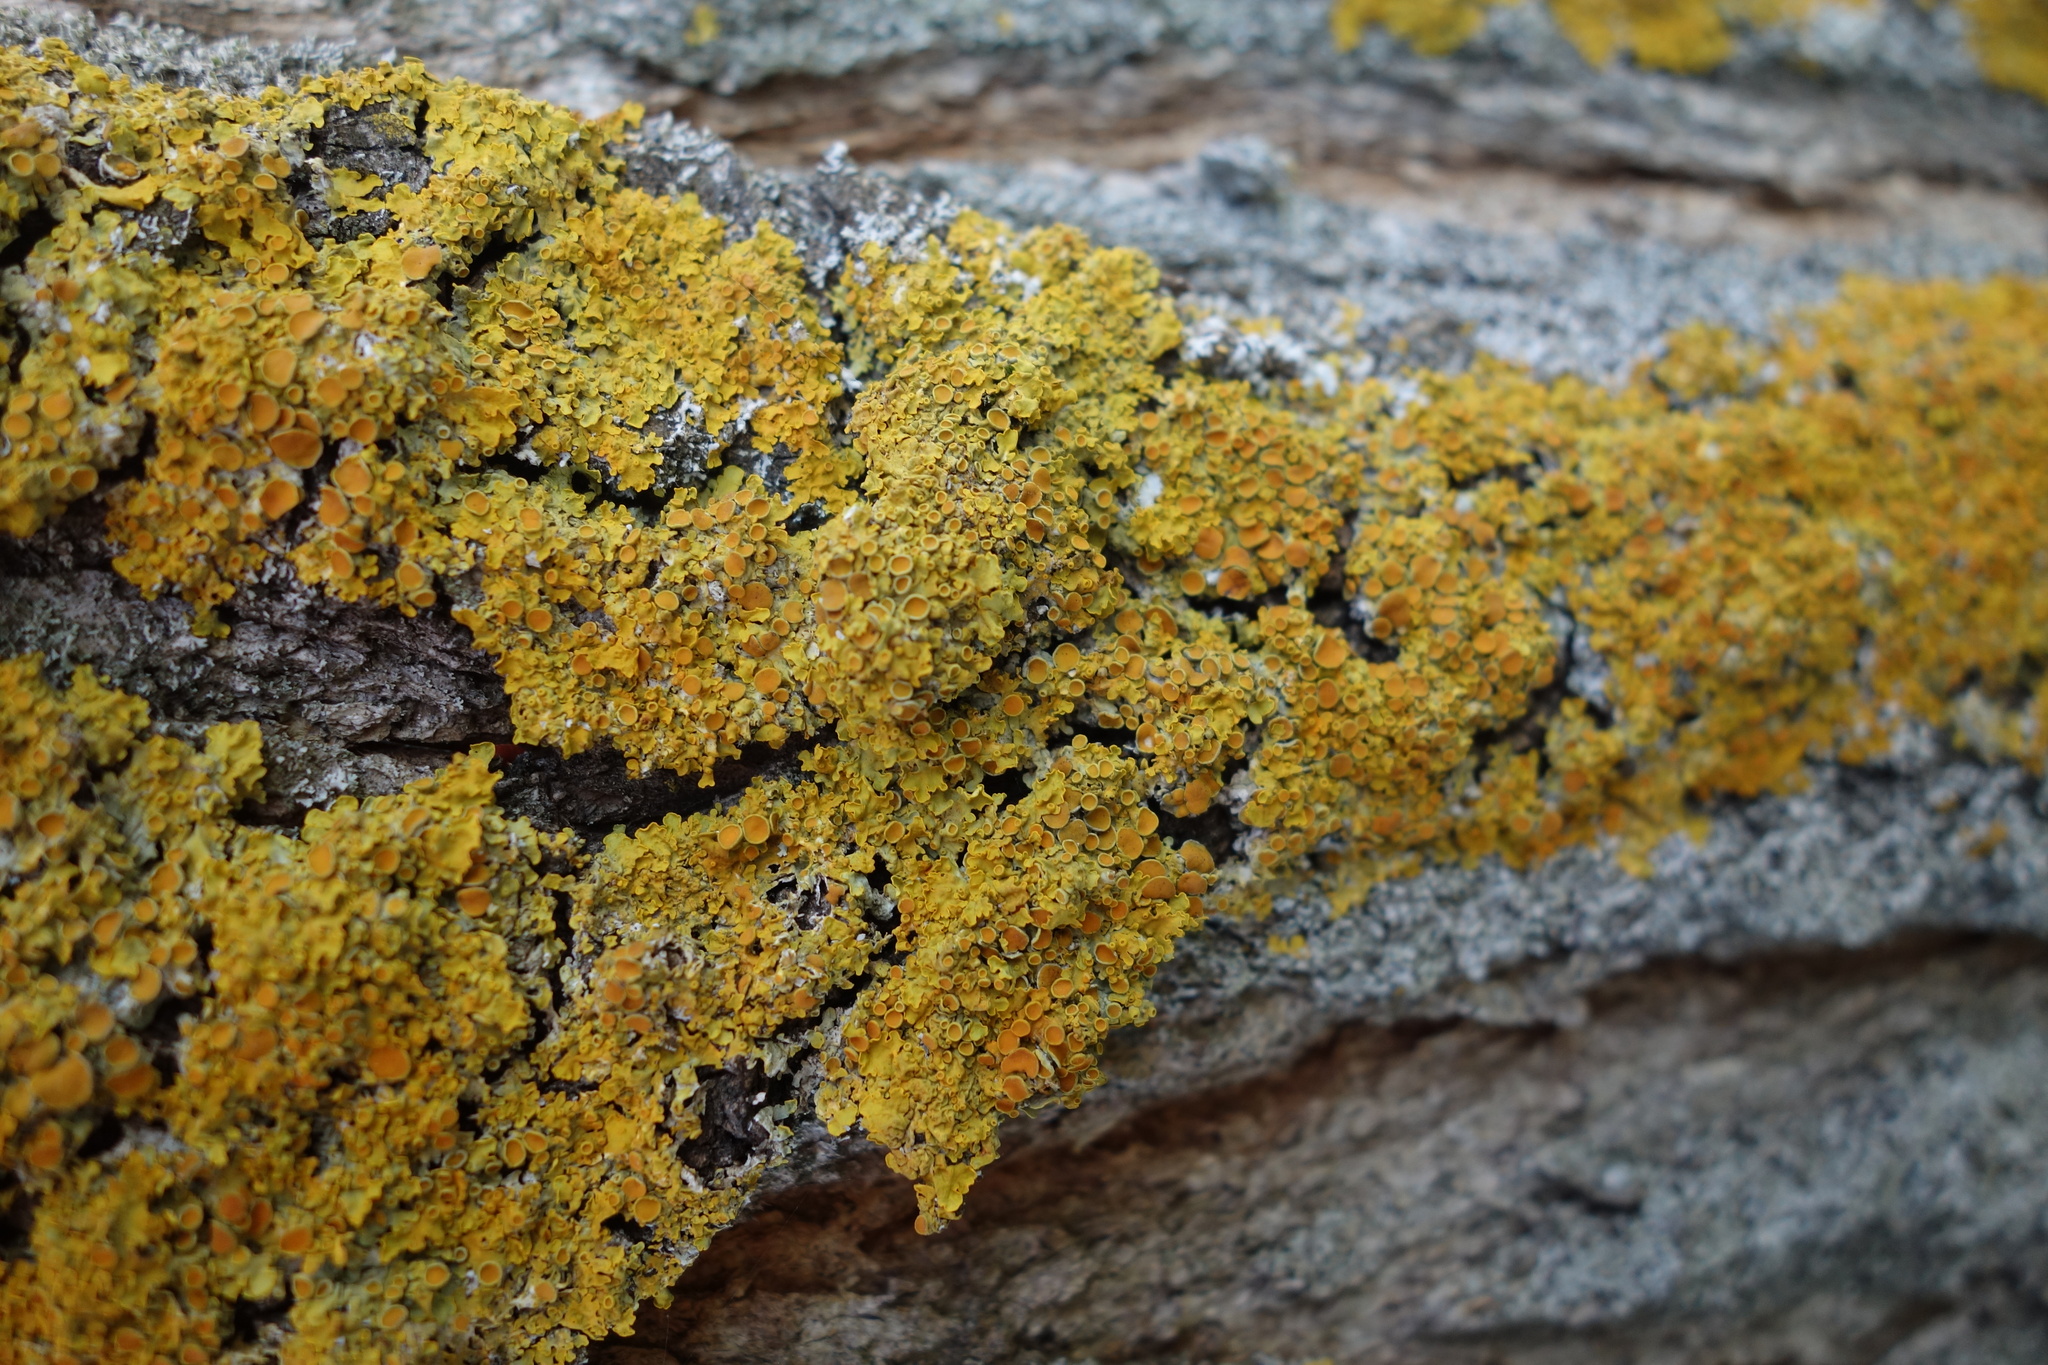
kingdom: Fungi
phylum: Ascomycota
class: Lecanoromycetes
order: Teloschistales
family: Teloschistaceae
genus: Xanthoria
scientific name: Xanthoria parietina
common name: Common orange lichen
